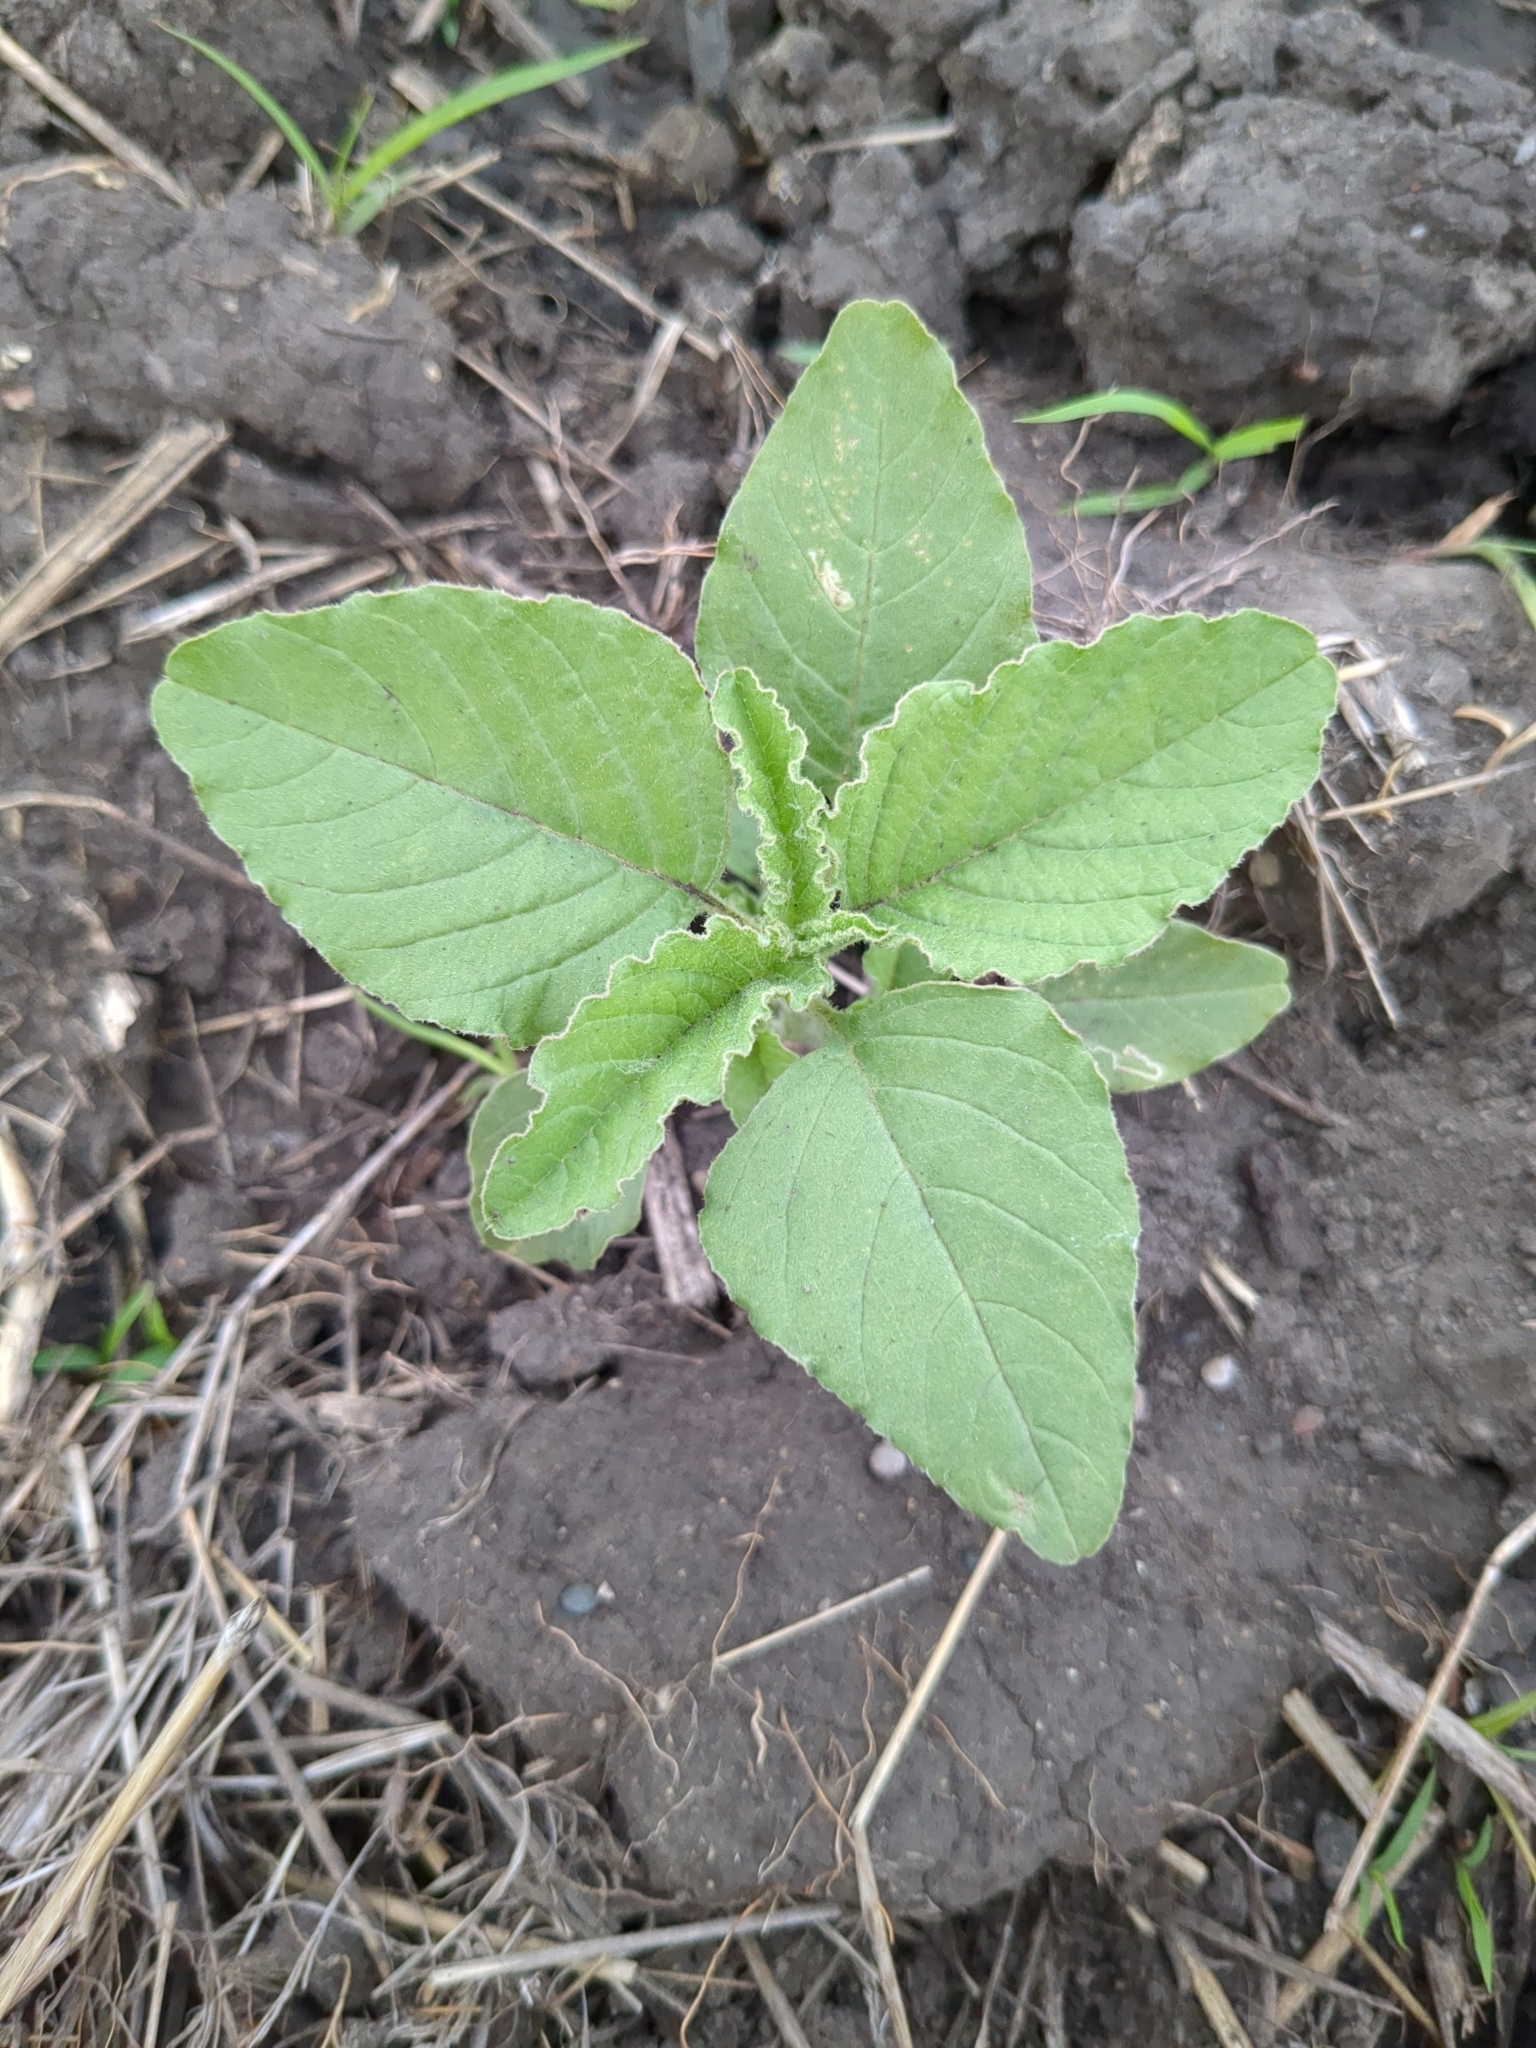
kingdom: Plantae
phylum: Tracheophyta
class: Magnoliopsida
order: Caryophyllales
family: Amaranthaceae
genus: Amaranthus
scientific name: Amaranthus retroflexus
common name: Redroot amaranth
